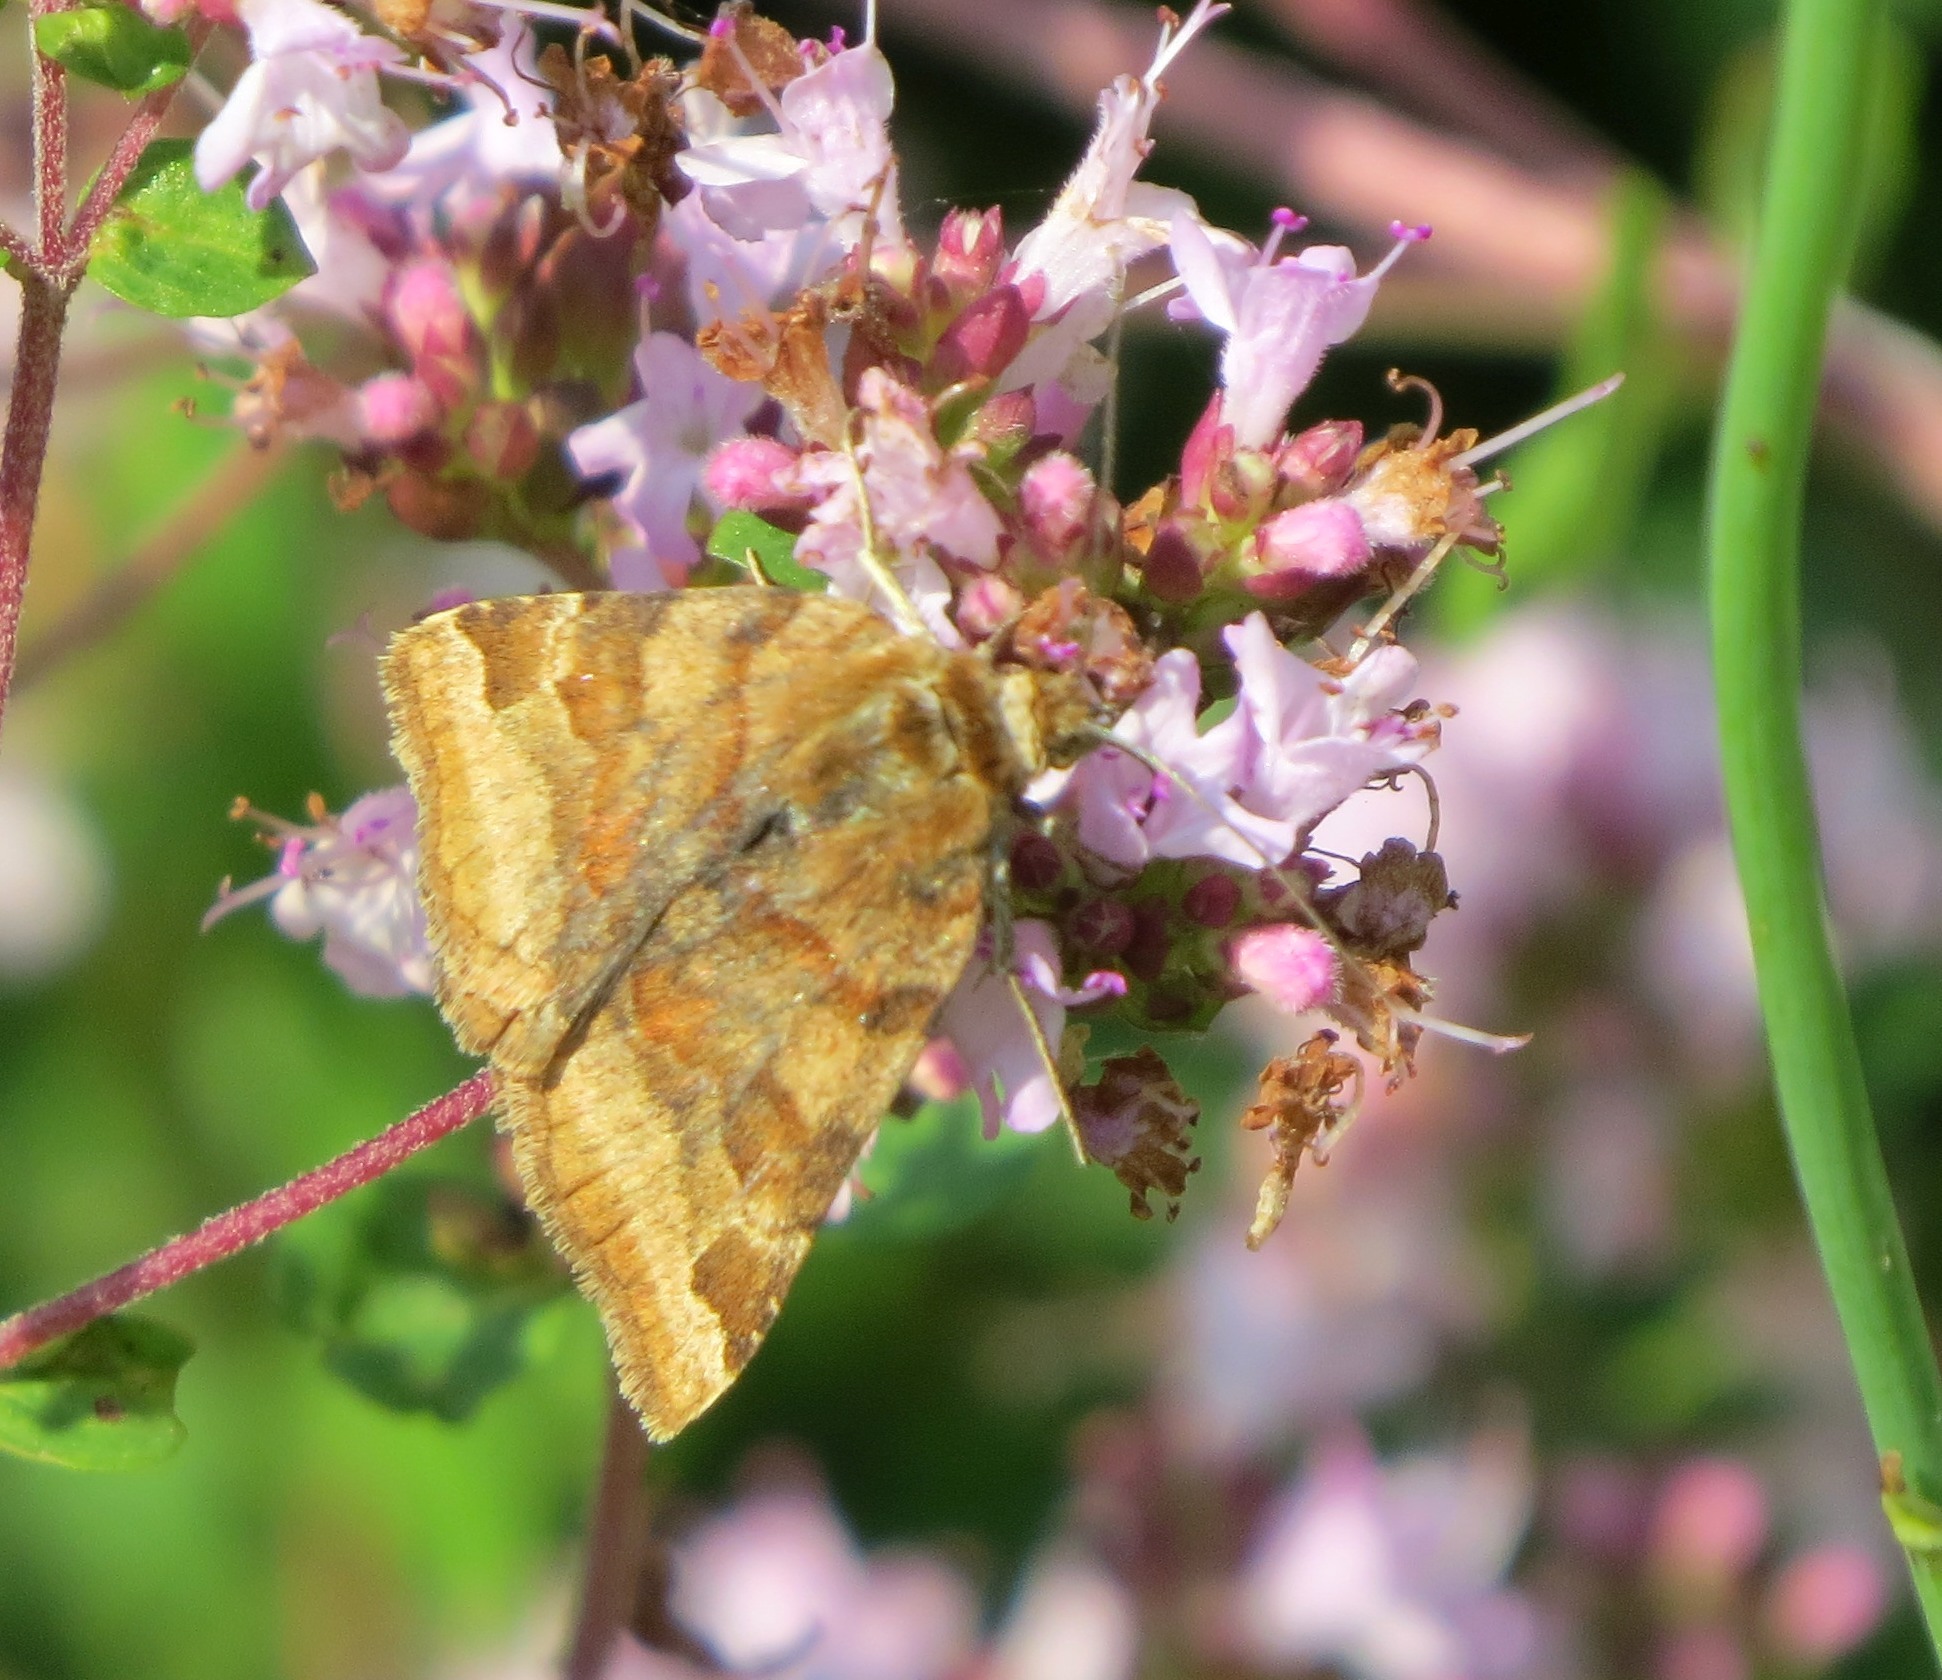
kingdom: Animalia
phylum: Arthropoda
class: Insecta
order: Lepidoptera
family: Erebidae
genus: Euclidia
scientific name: Euclidia glyphica
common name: Burnet companion
